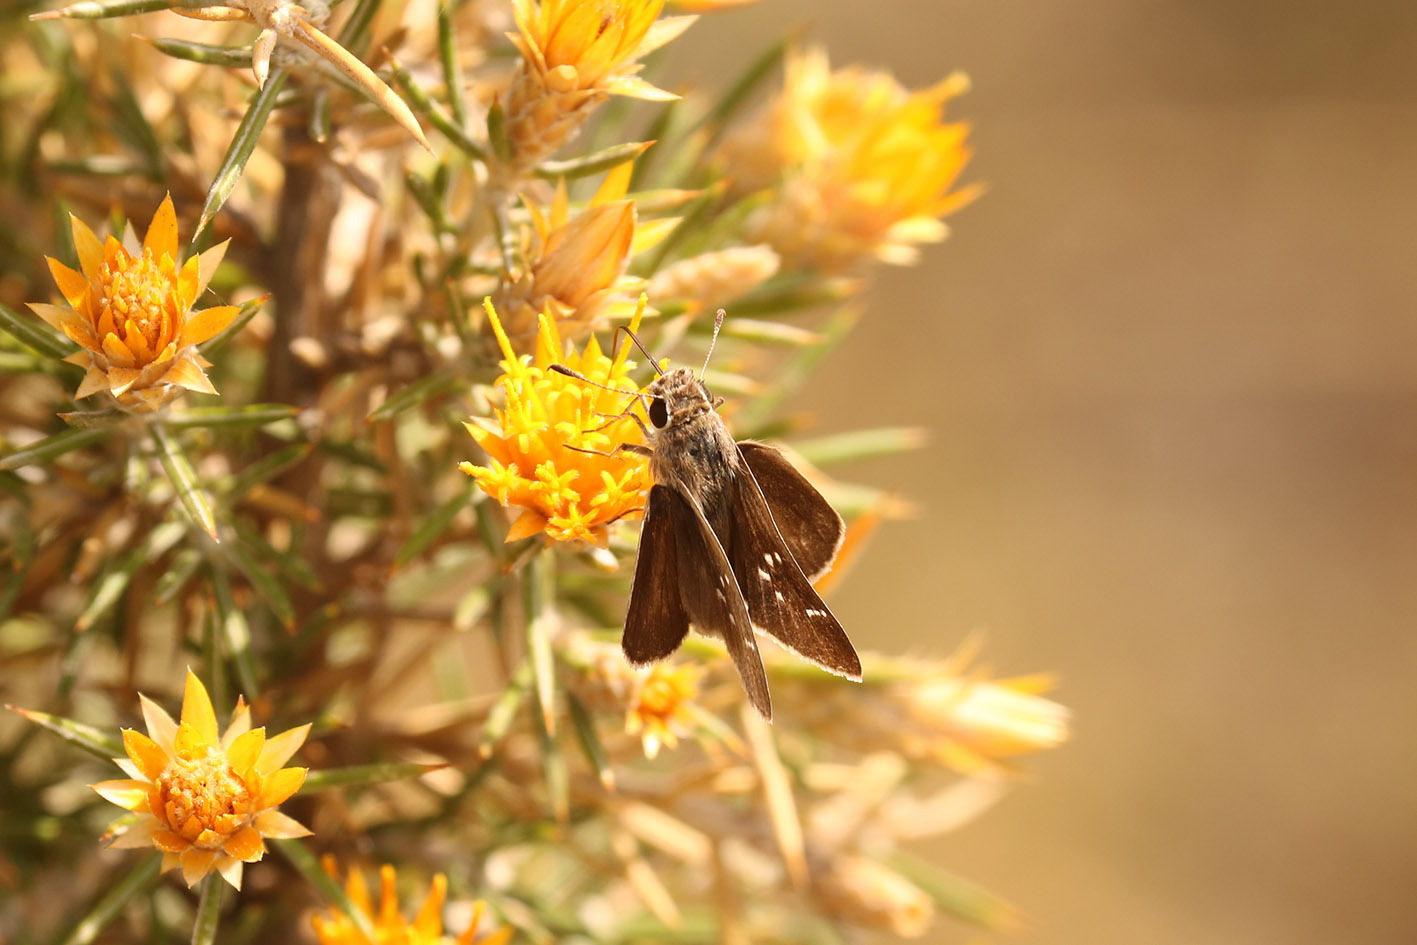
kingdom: Animalia
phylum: Arthropoda
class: Insecta
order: Lepidoptera
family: Hesperiidae
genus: Lerodea
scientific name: Lerodea eufala
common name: Eufala skipper
